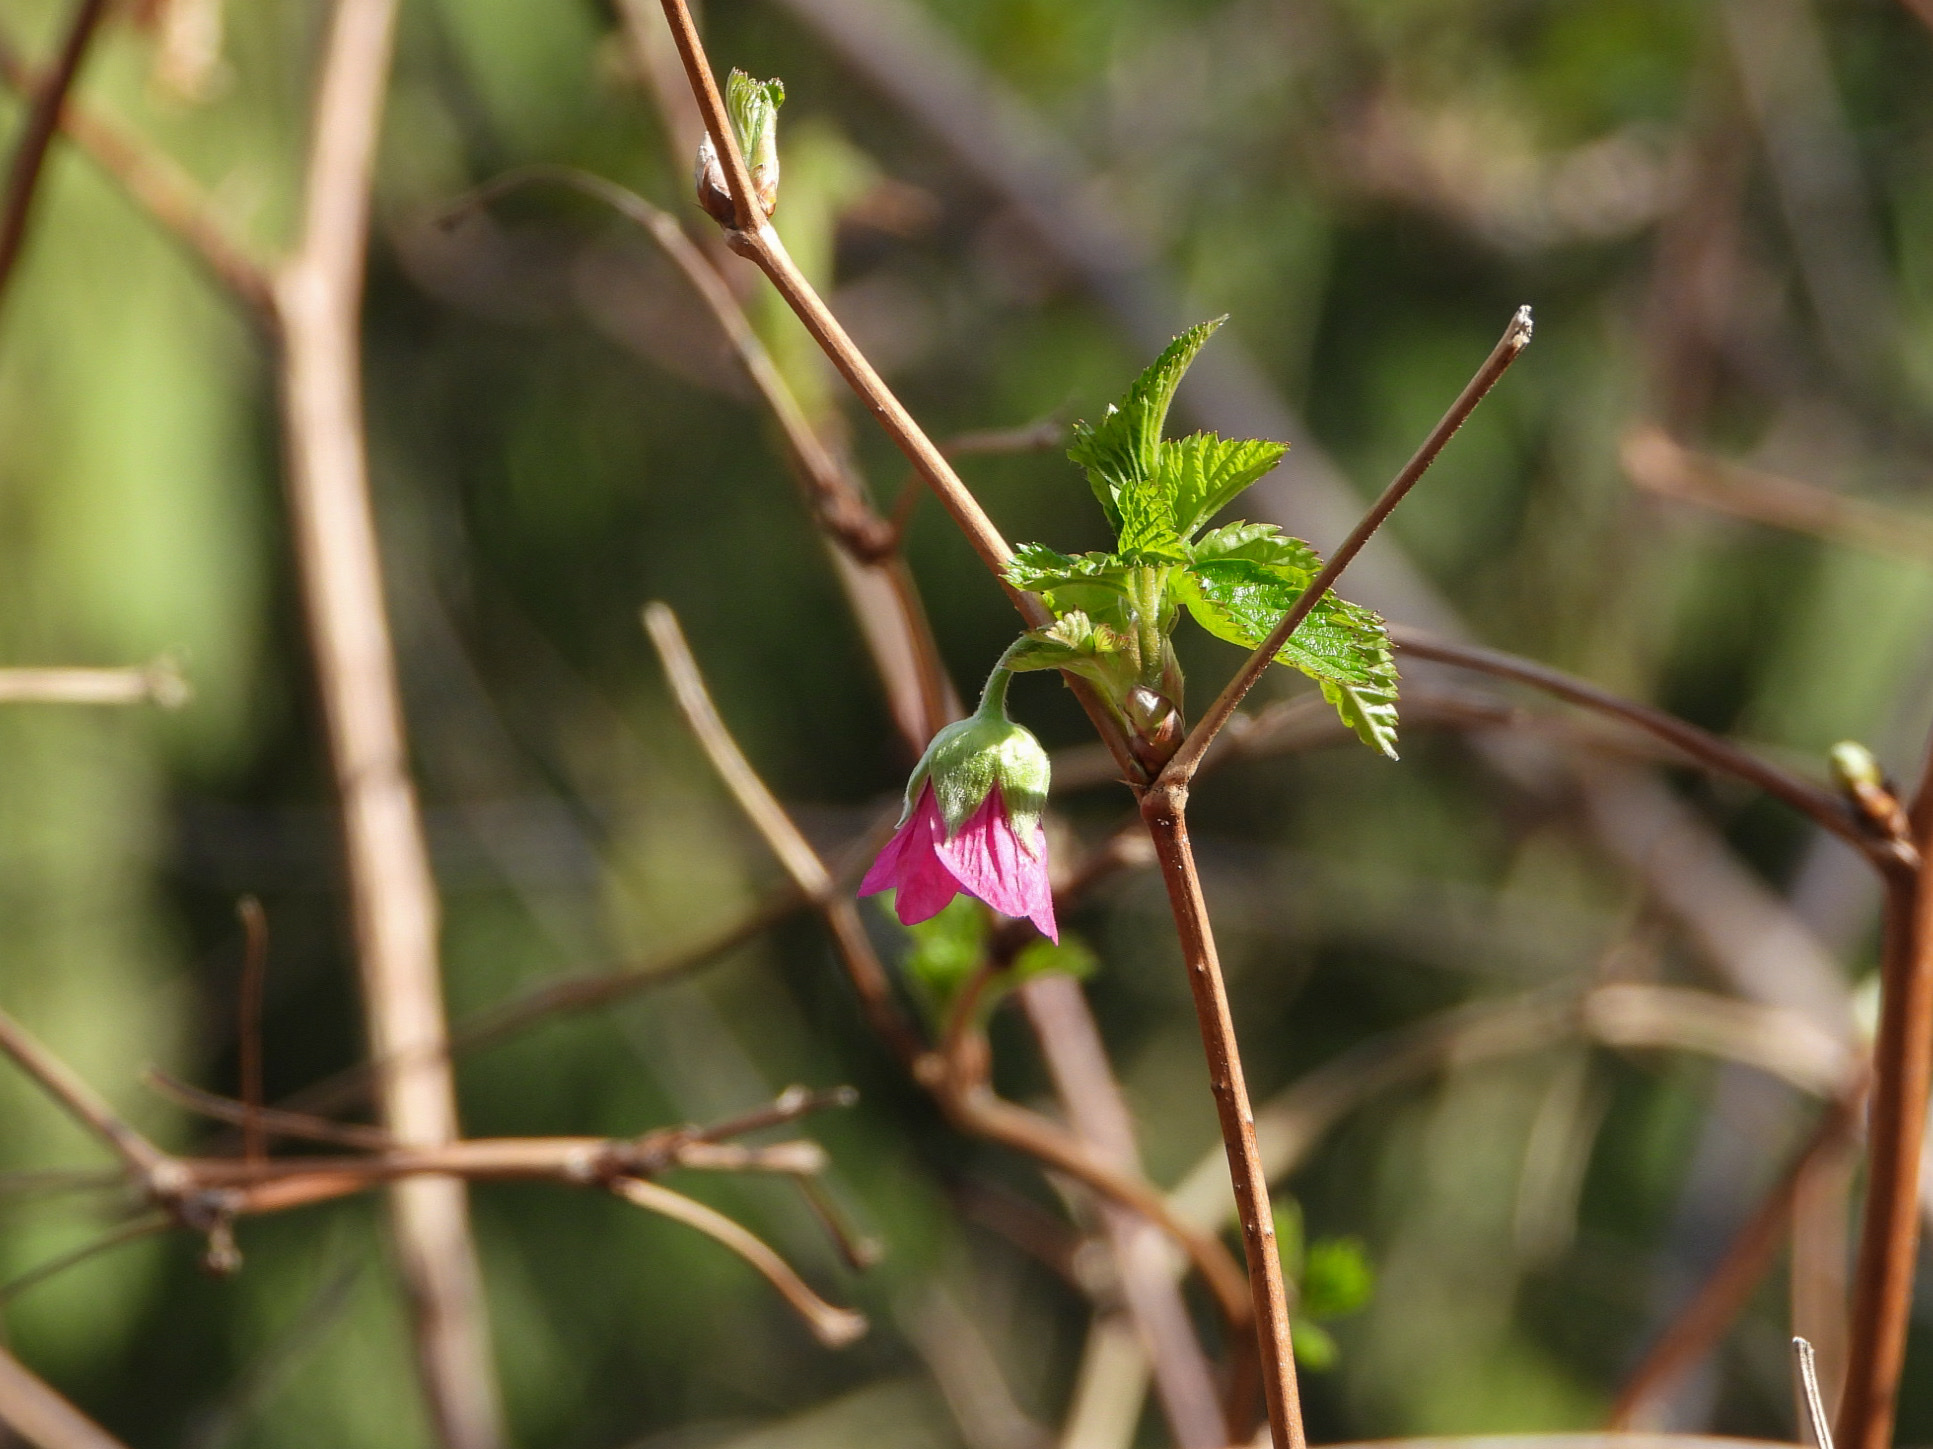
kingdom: Plantae
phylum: Tracheophyta
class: Magnoliopsida
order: Rosales
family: Rosaceae
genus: Rubus
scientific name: Rubus spectabilis
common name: Salmonberry
